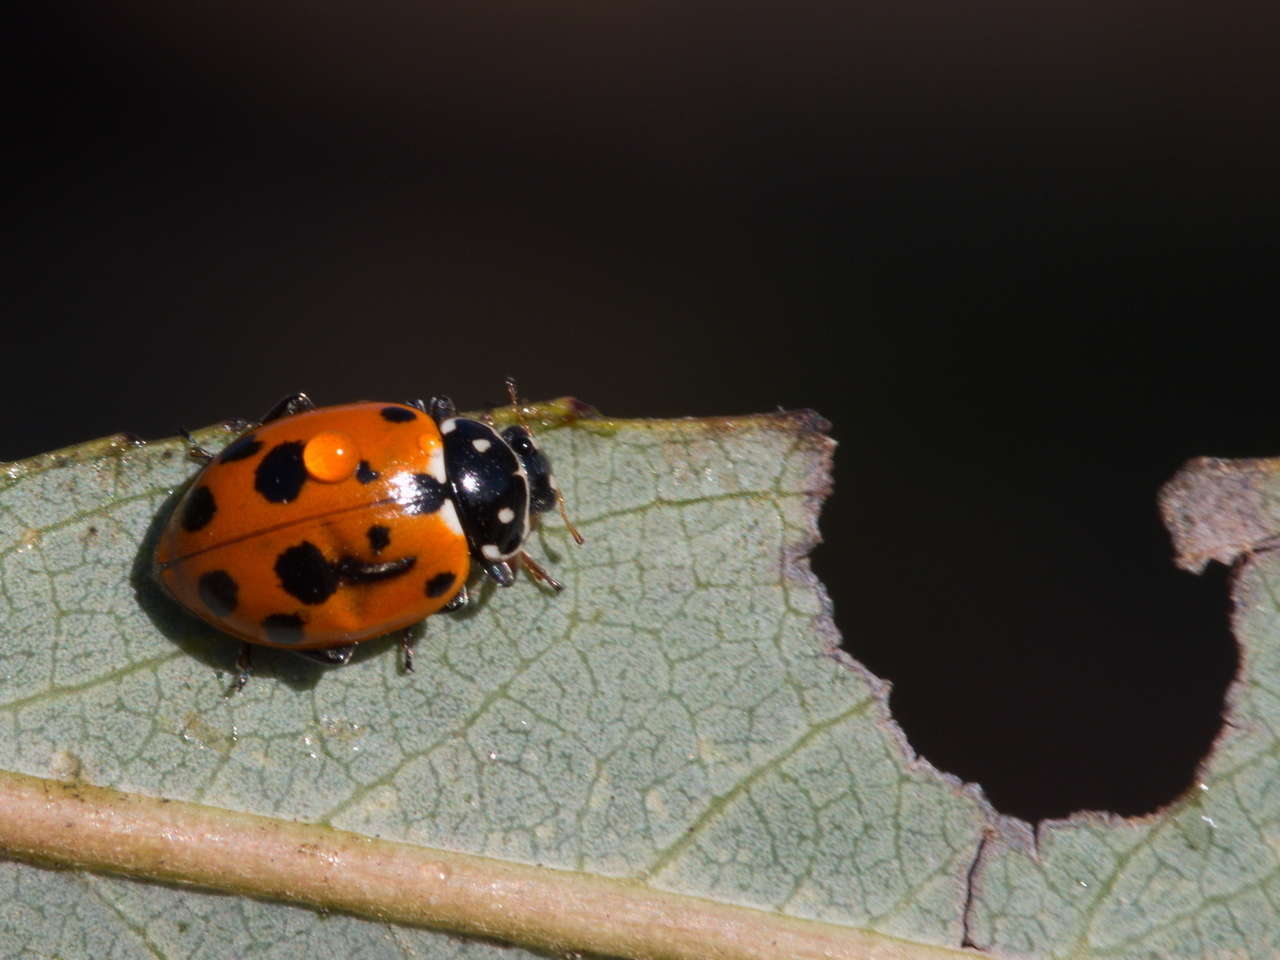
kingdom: Animalia
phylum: Arthropoda
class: Insecta
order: Coleoptera
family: Coccinellidae
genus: Hippodamia
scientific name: Hippodamia variegata
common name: Ladybird beetle
